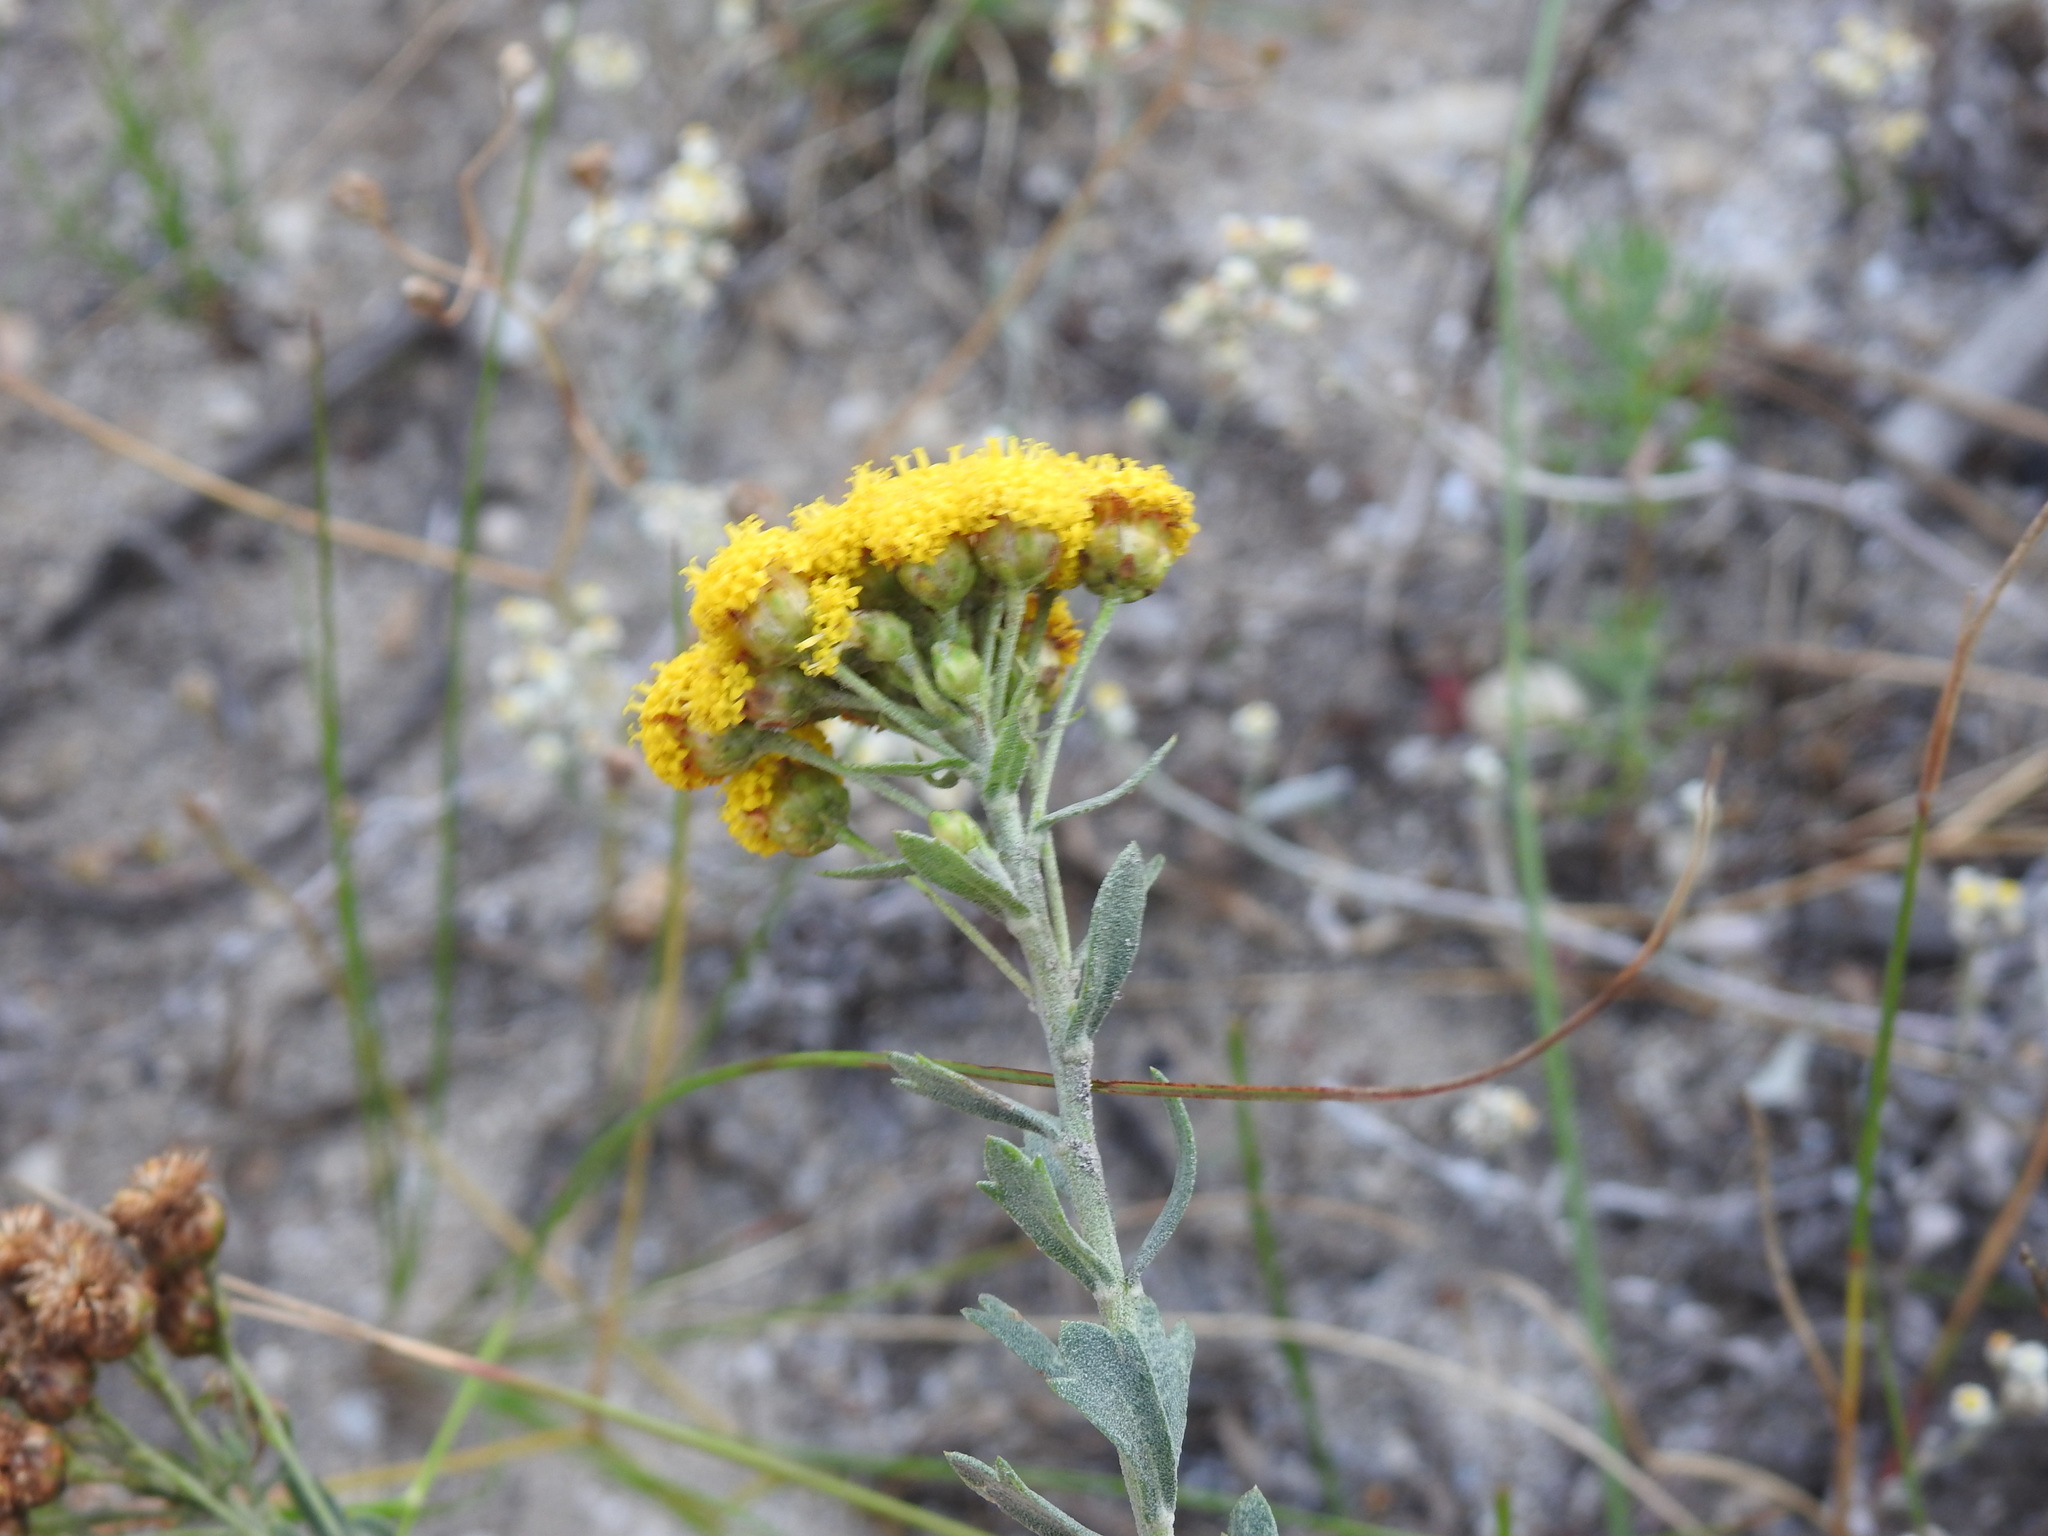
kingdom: Plantae
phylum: Tracheophyta
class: Magnoliopsida
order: Asterales
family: Asteraceae
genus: Athanasia
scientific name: Athanasia trifurcata
